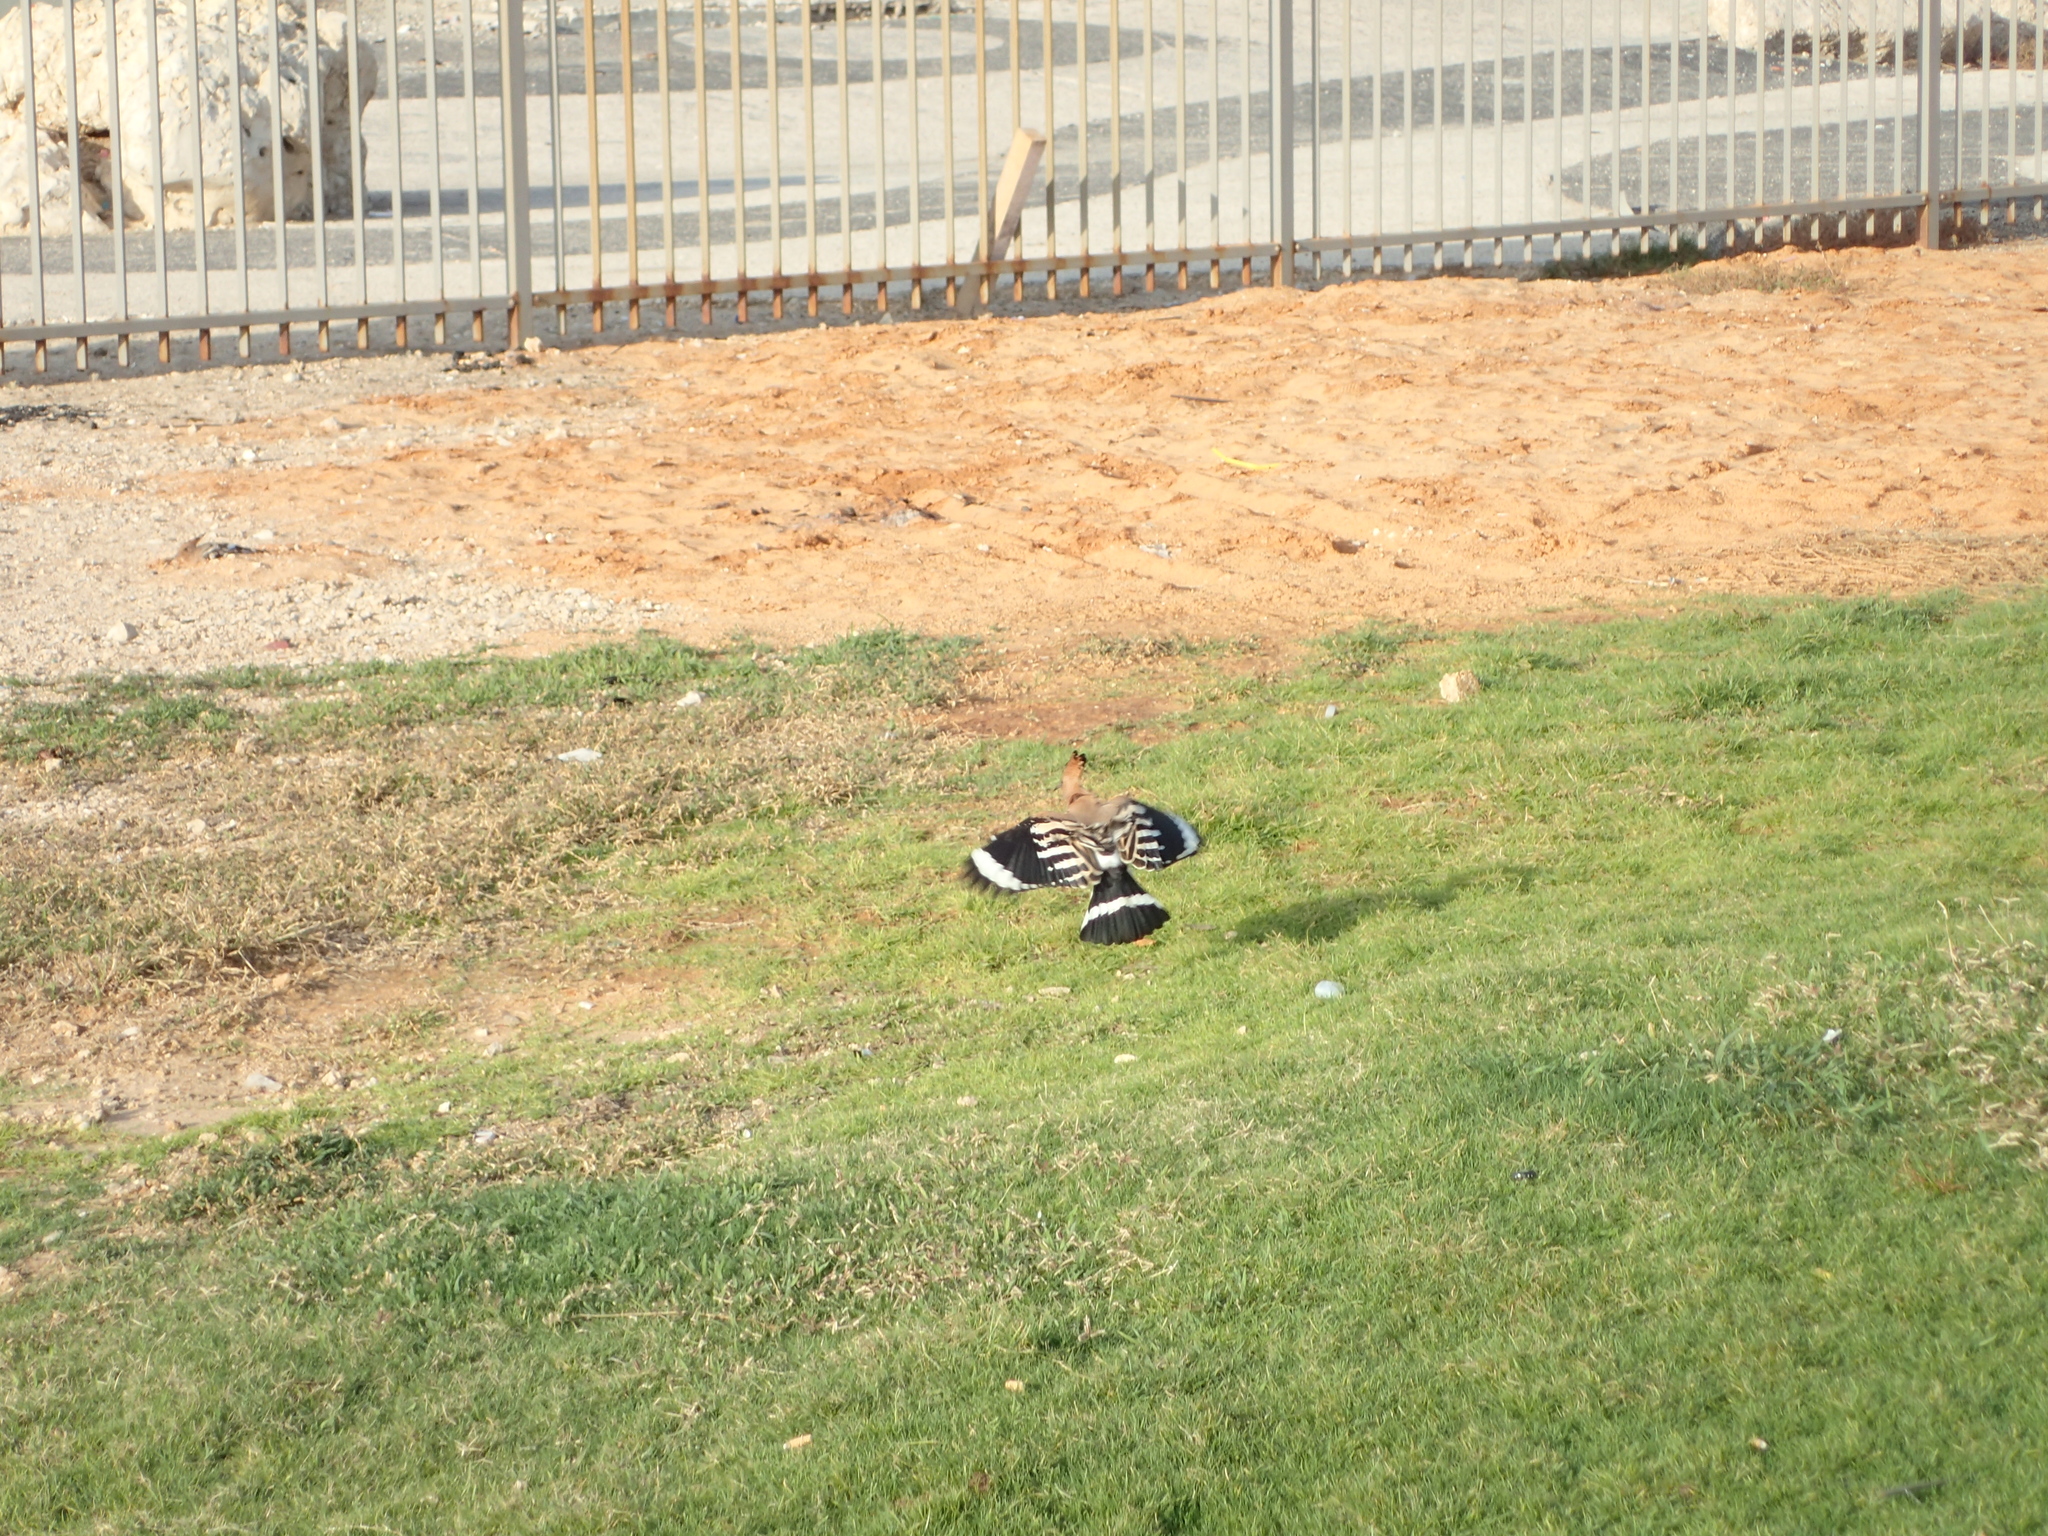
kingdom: Animalia
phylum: Chordata
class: Aves
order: Bucerotiformes
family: Upupidae
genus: Upupa
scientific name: Upupa epops
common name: Eurasian hoopoe
